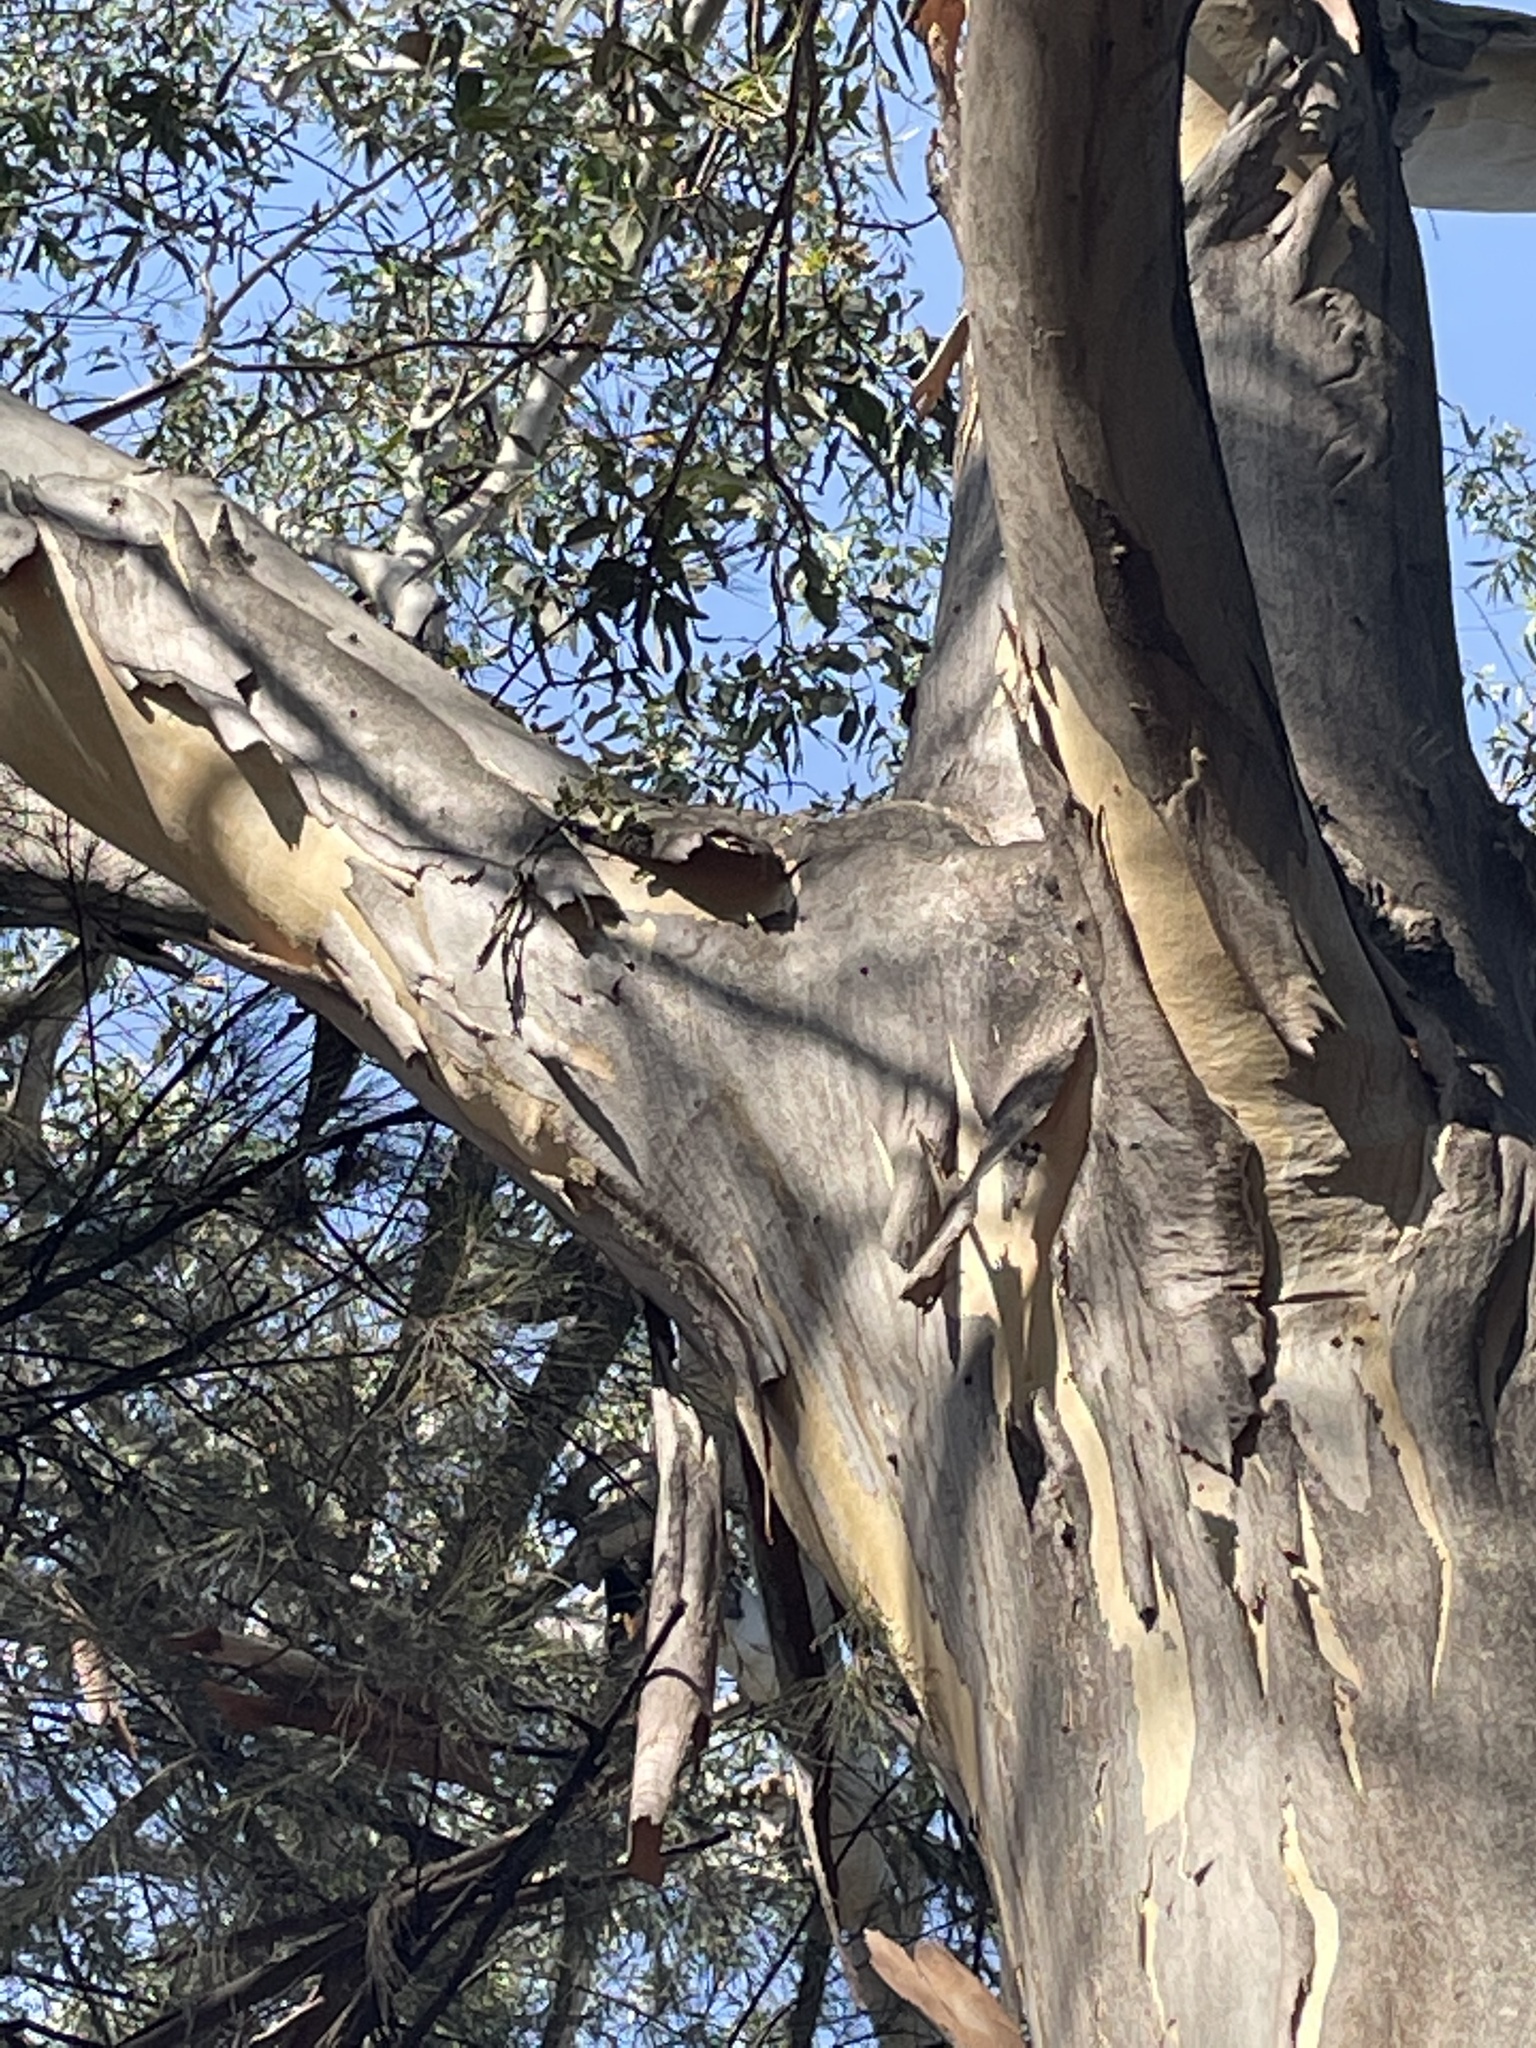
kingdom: Plantae
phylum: Tracheophyta
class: Magnoliopsida
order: Myrtales
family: Myrtaceae
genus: Eucalyptus
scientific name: Eucalyptus camaldulensis
